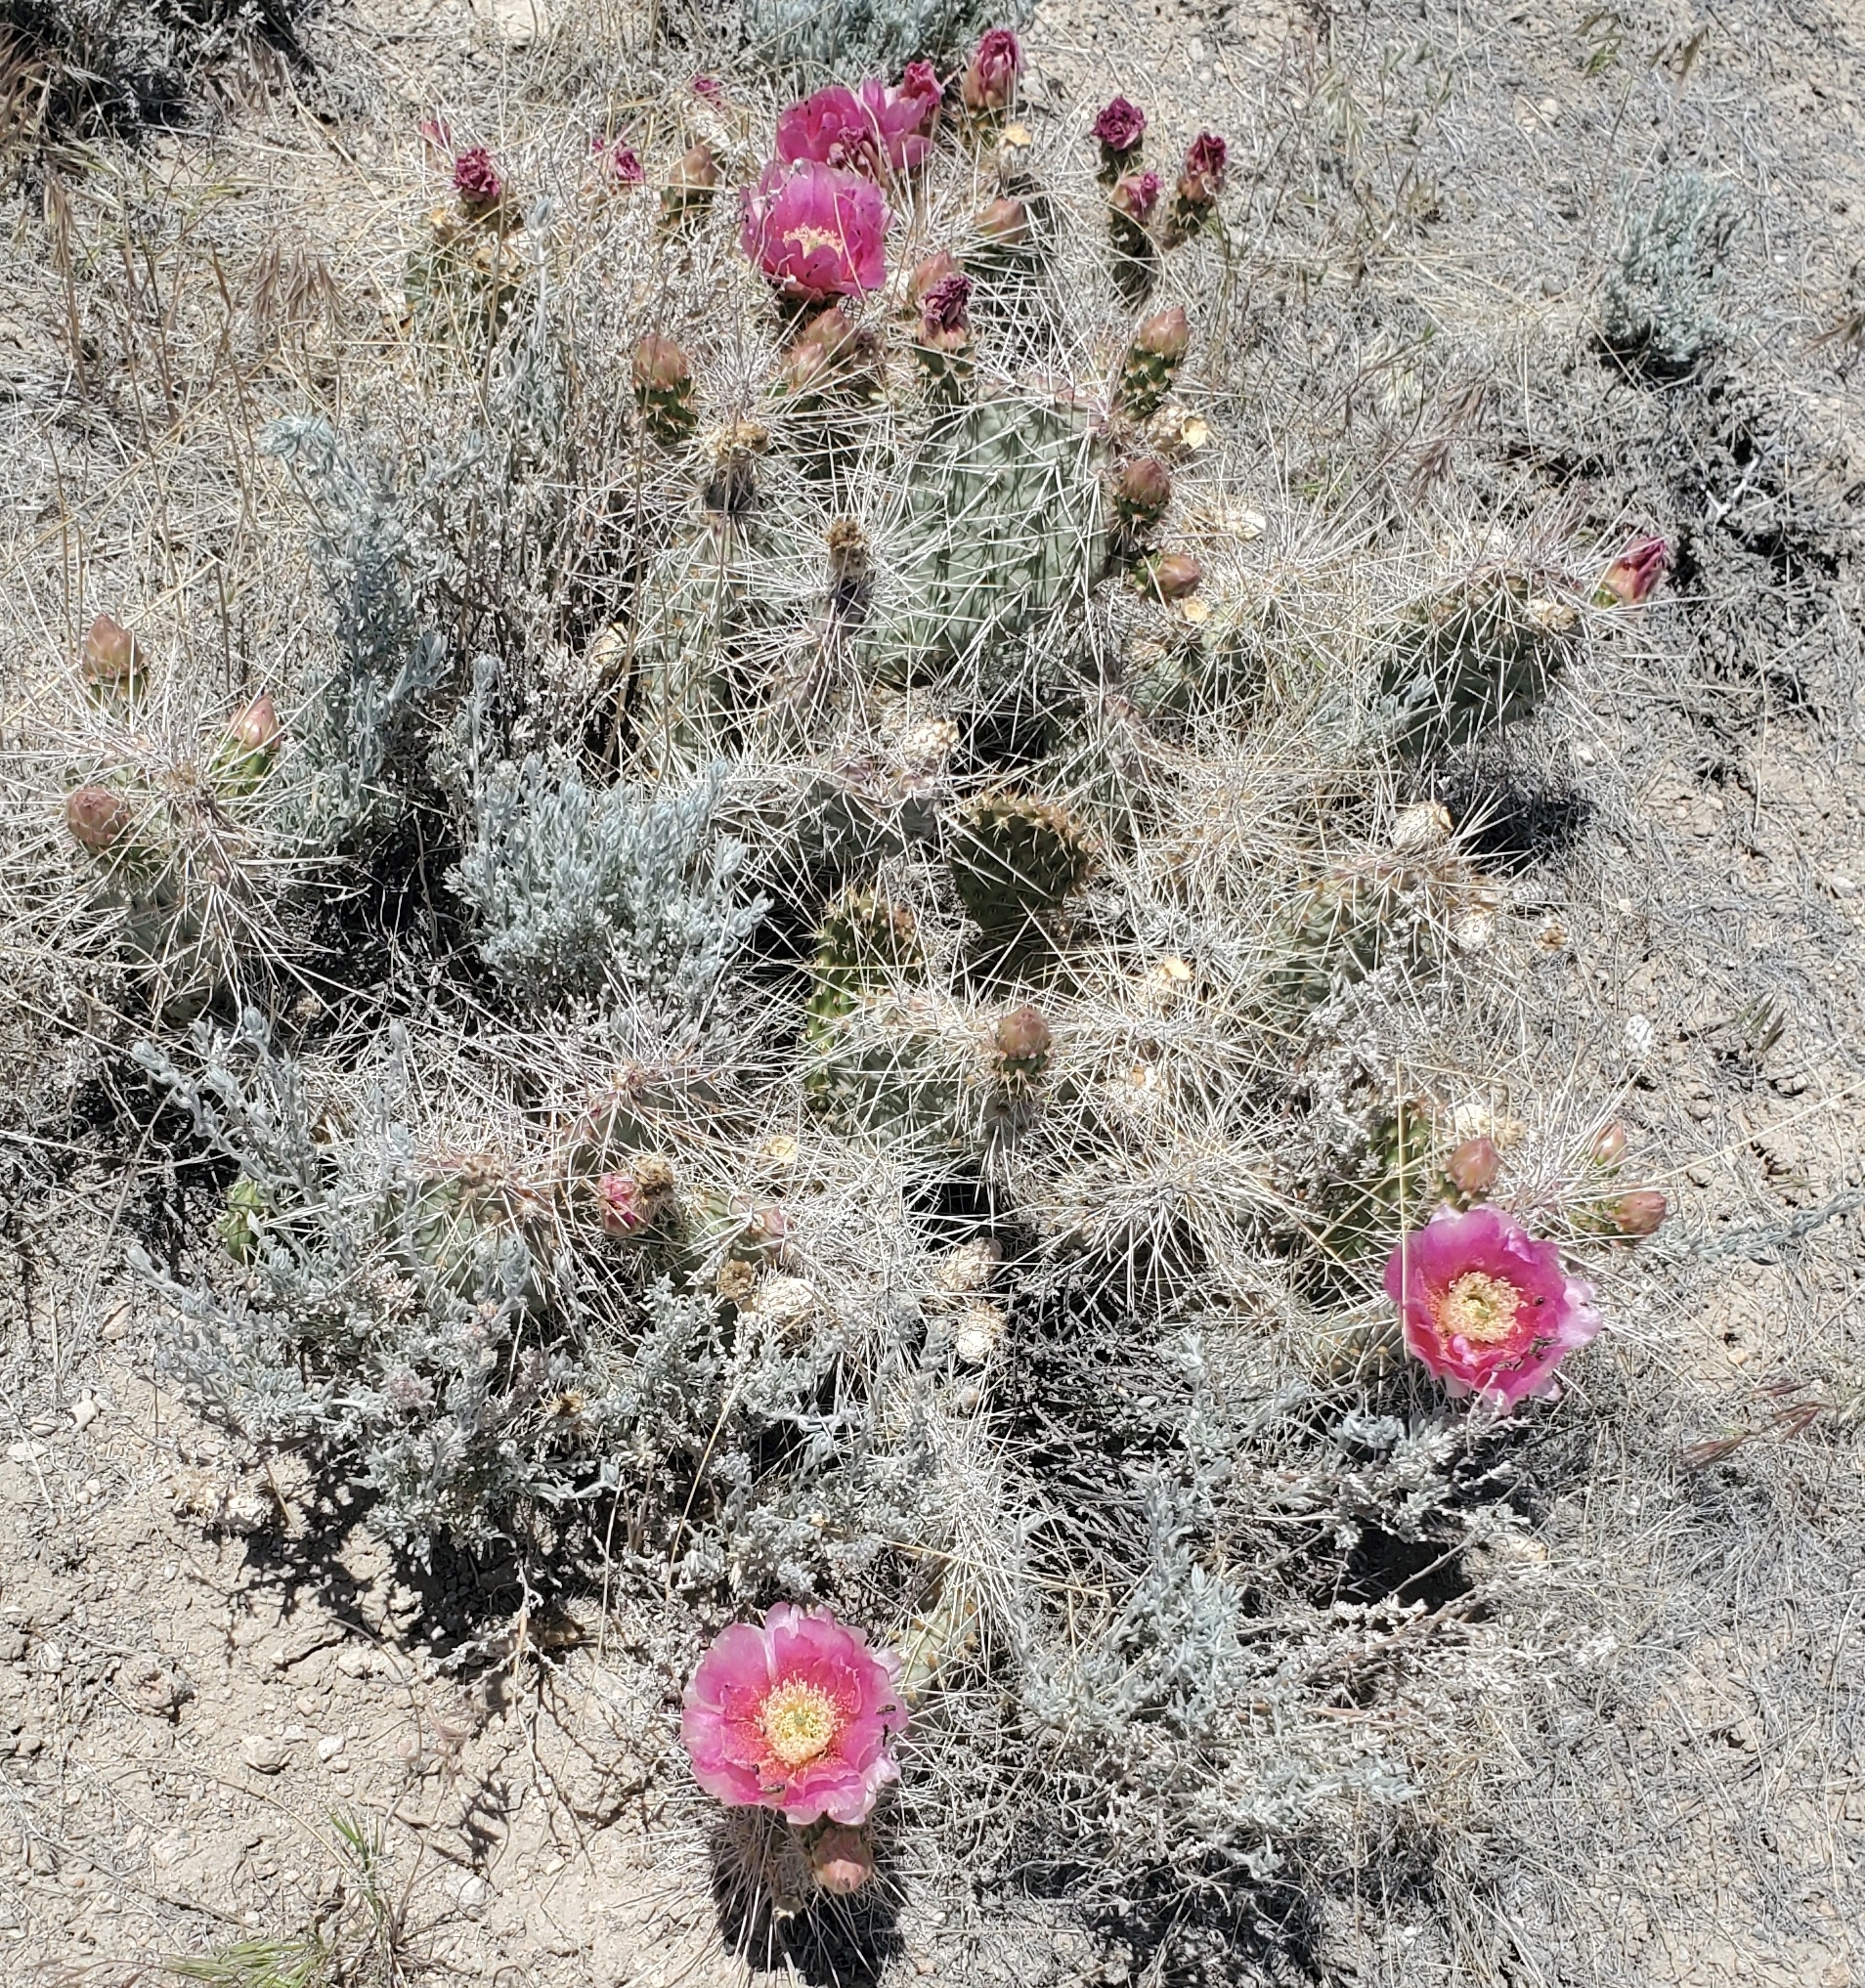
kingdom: Plantae
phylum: Tracheophyta
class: Magnoliopsida
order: Caryophyllales
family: Cactaceae
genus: Opuntia
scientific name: Opuntia polyacantha
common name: Plains prickly-pear
